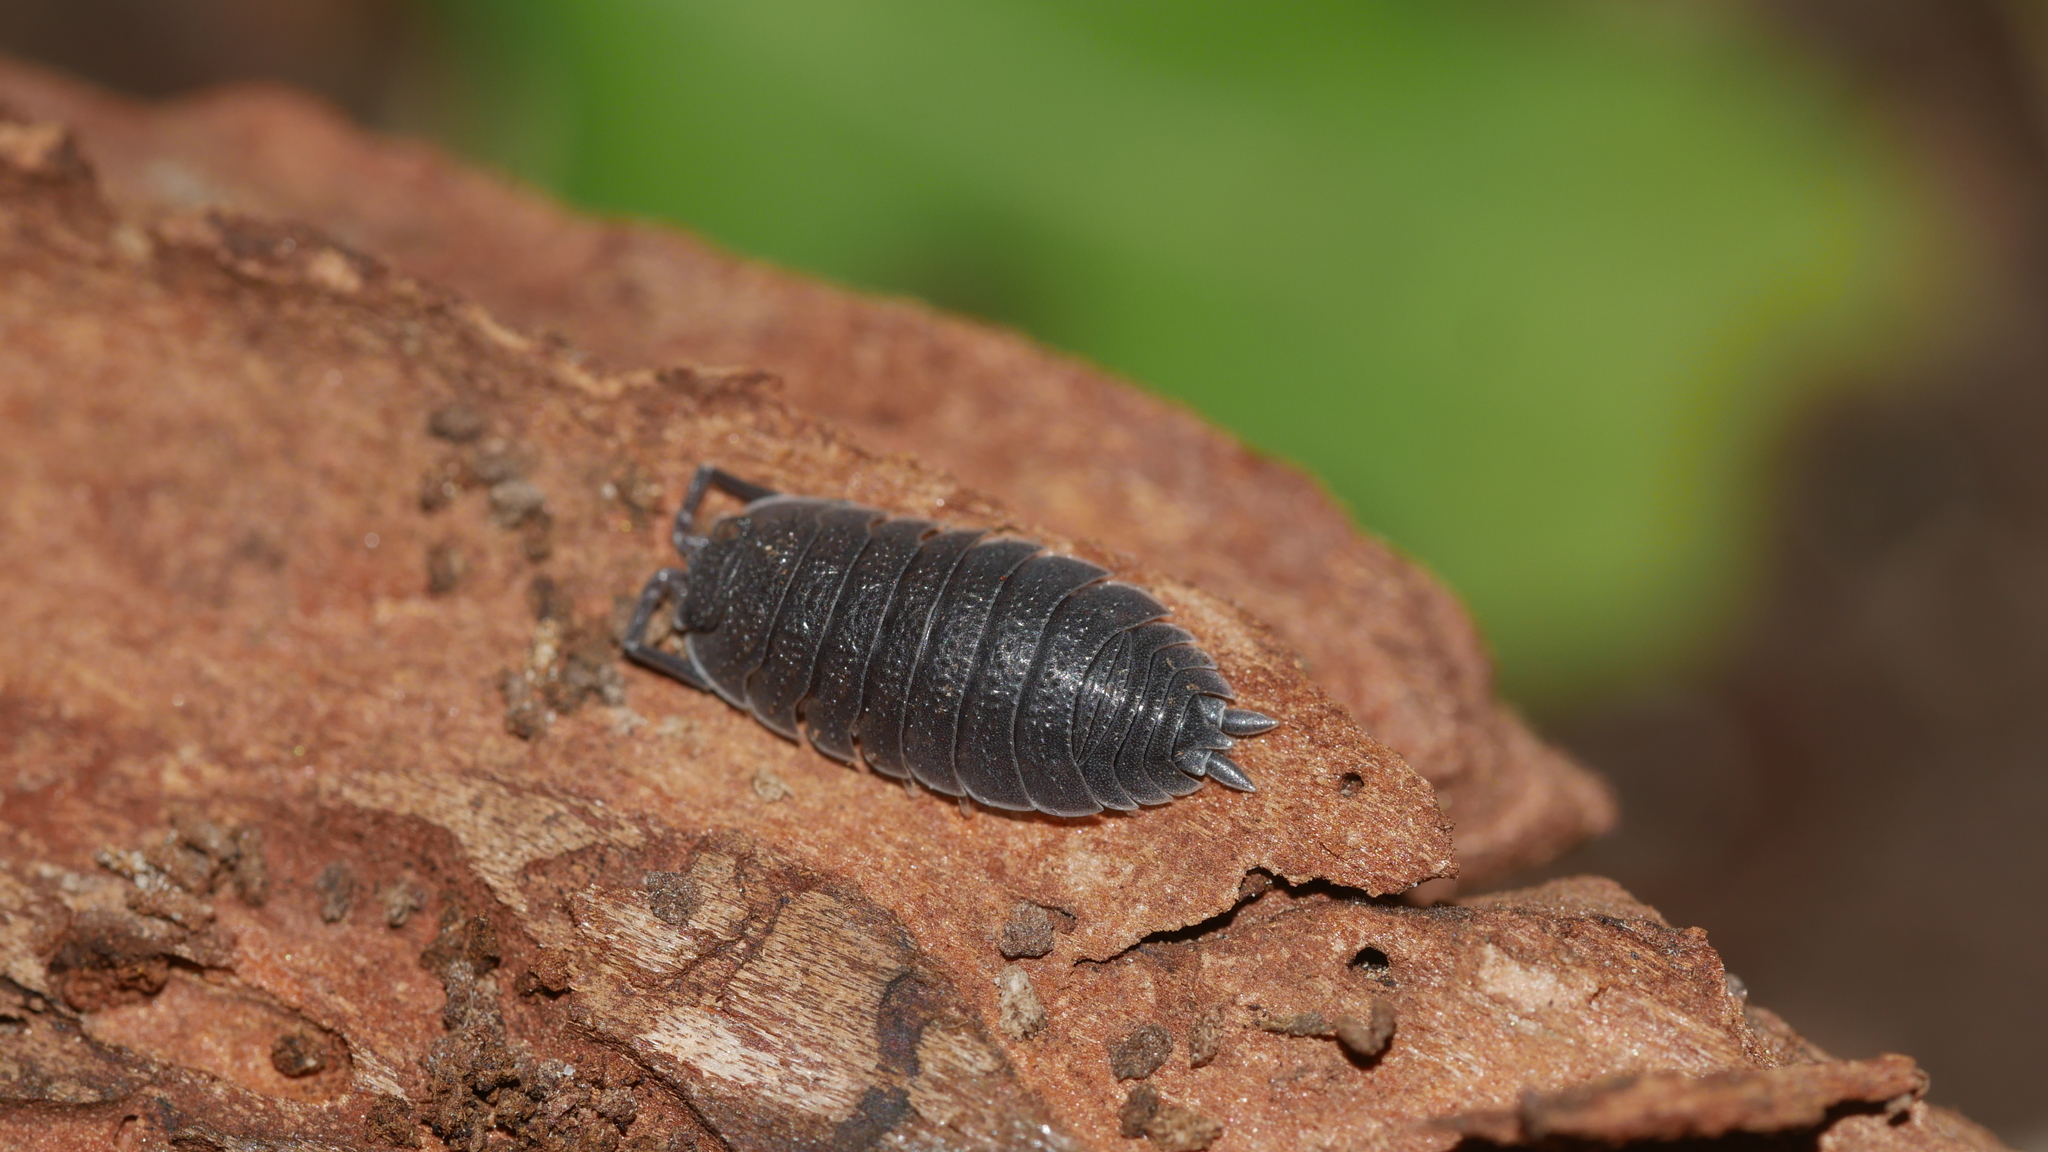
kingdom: Animalia
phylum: Arthropoda
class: Malacostraca
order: Isopoda
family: Porcellionidae
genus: Porcellio
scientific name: Porcellio scaber
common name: Common rough woodlouse
